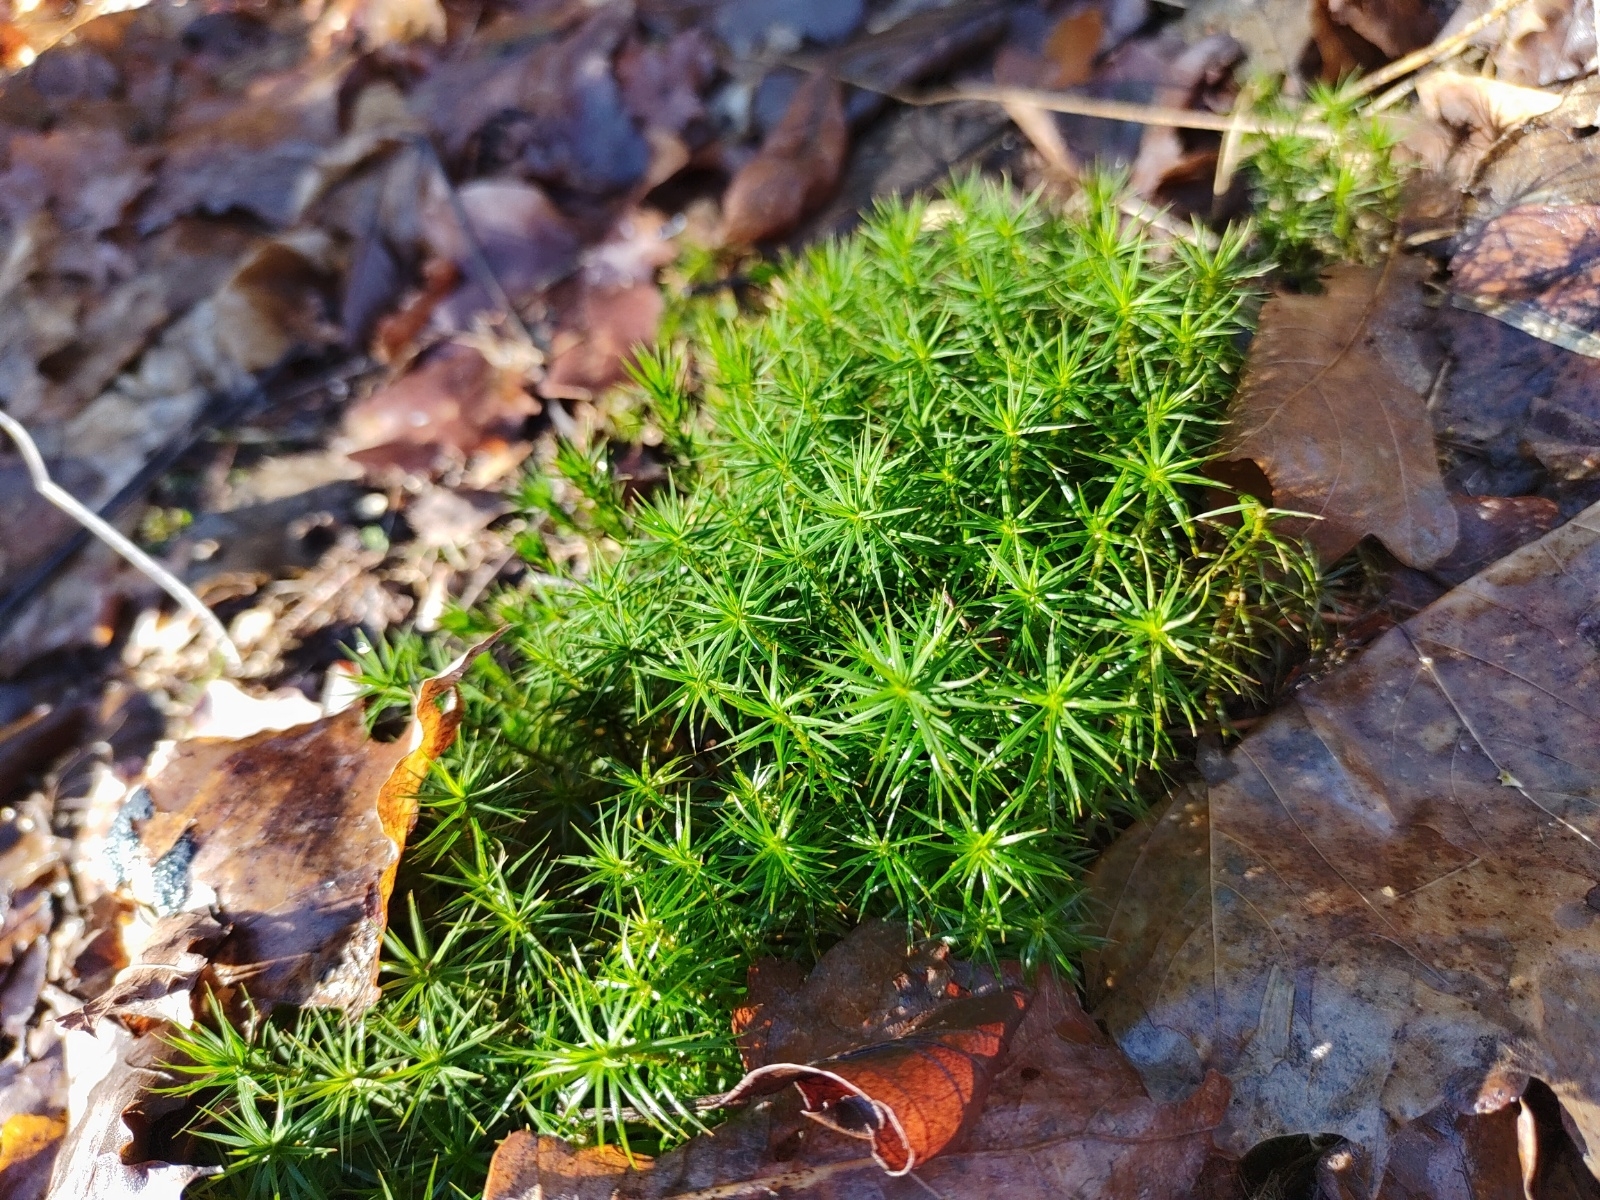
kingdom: Plantae
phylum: Bryophyta
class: Polytrichopsida
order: Polytrichales
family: Polytrichaceae
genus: Polytrichum
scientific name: Polytrichum formosum
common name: Bank haircap moss
